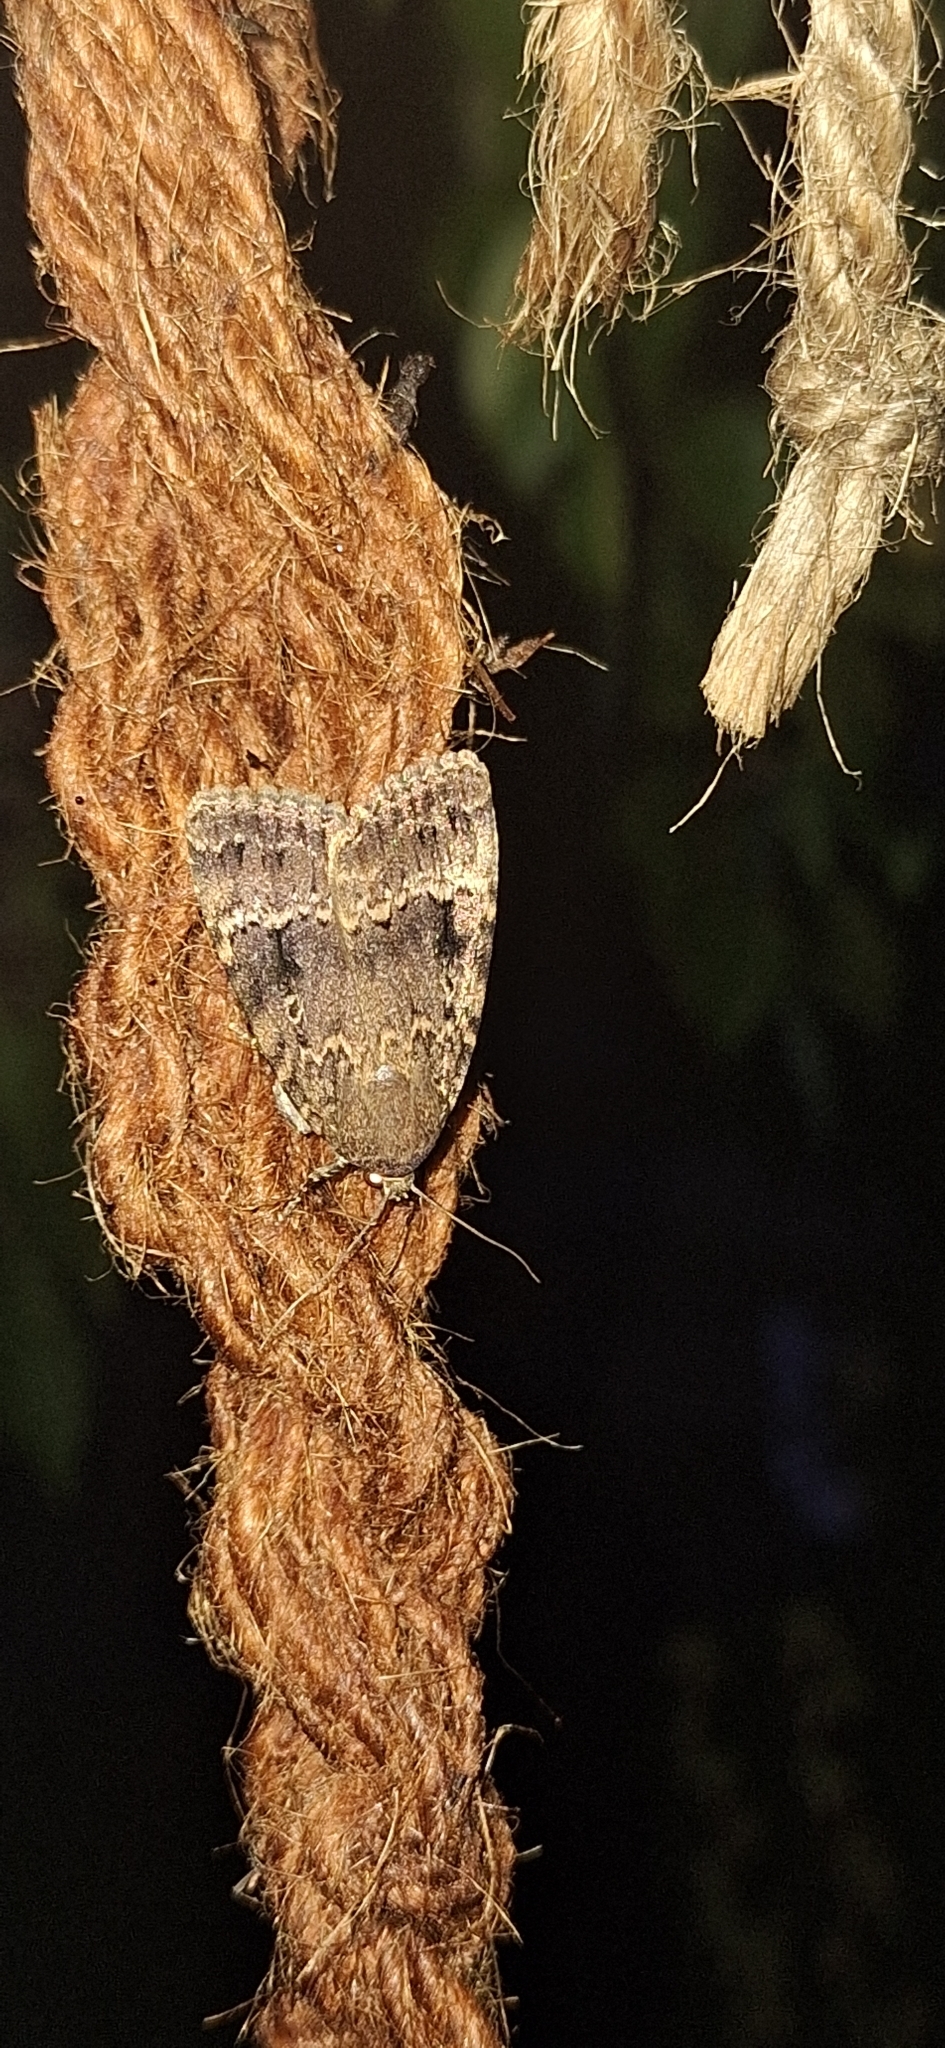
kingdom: Animalia
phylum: Arthropoda
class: Insecta
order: Lepidoptera
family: Noctuidae
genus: Amphipyra
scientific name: Amphipyra pyramidea
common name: Copper underwing
